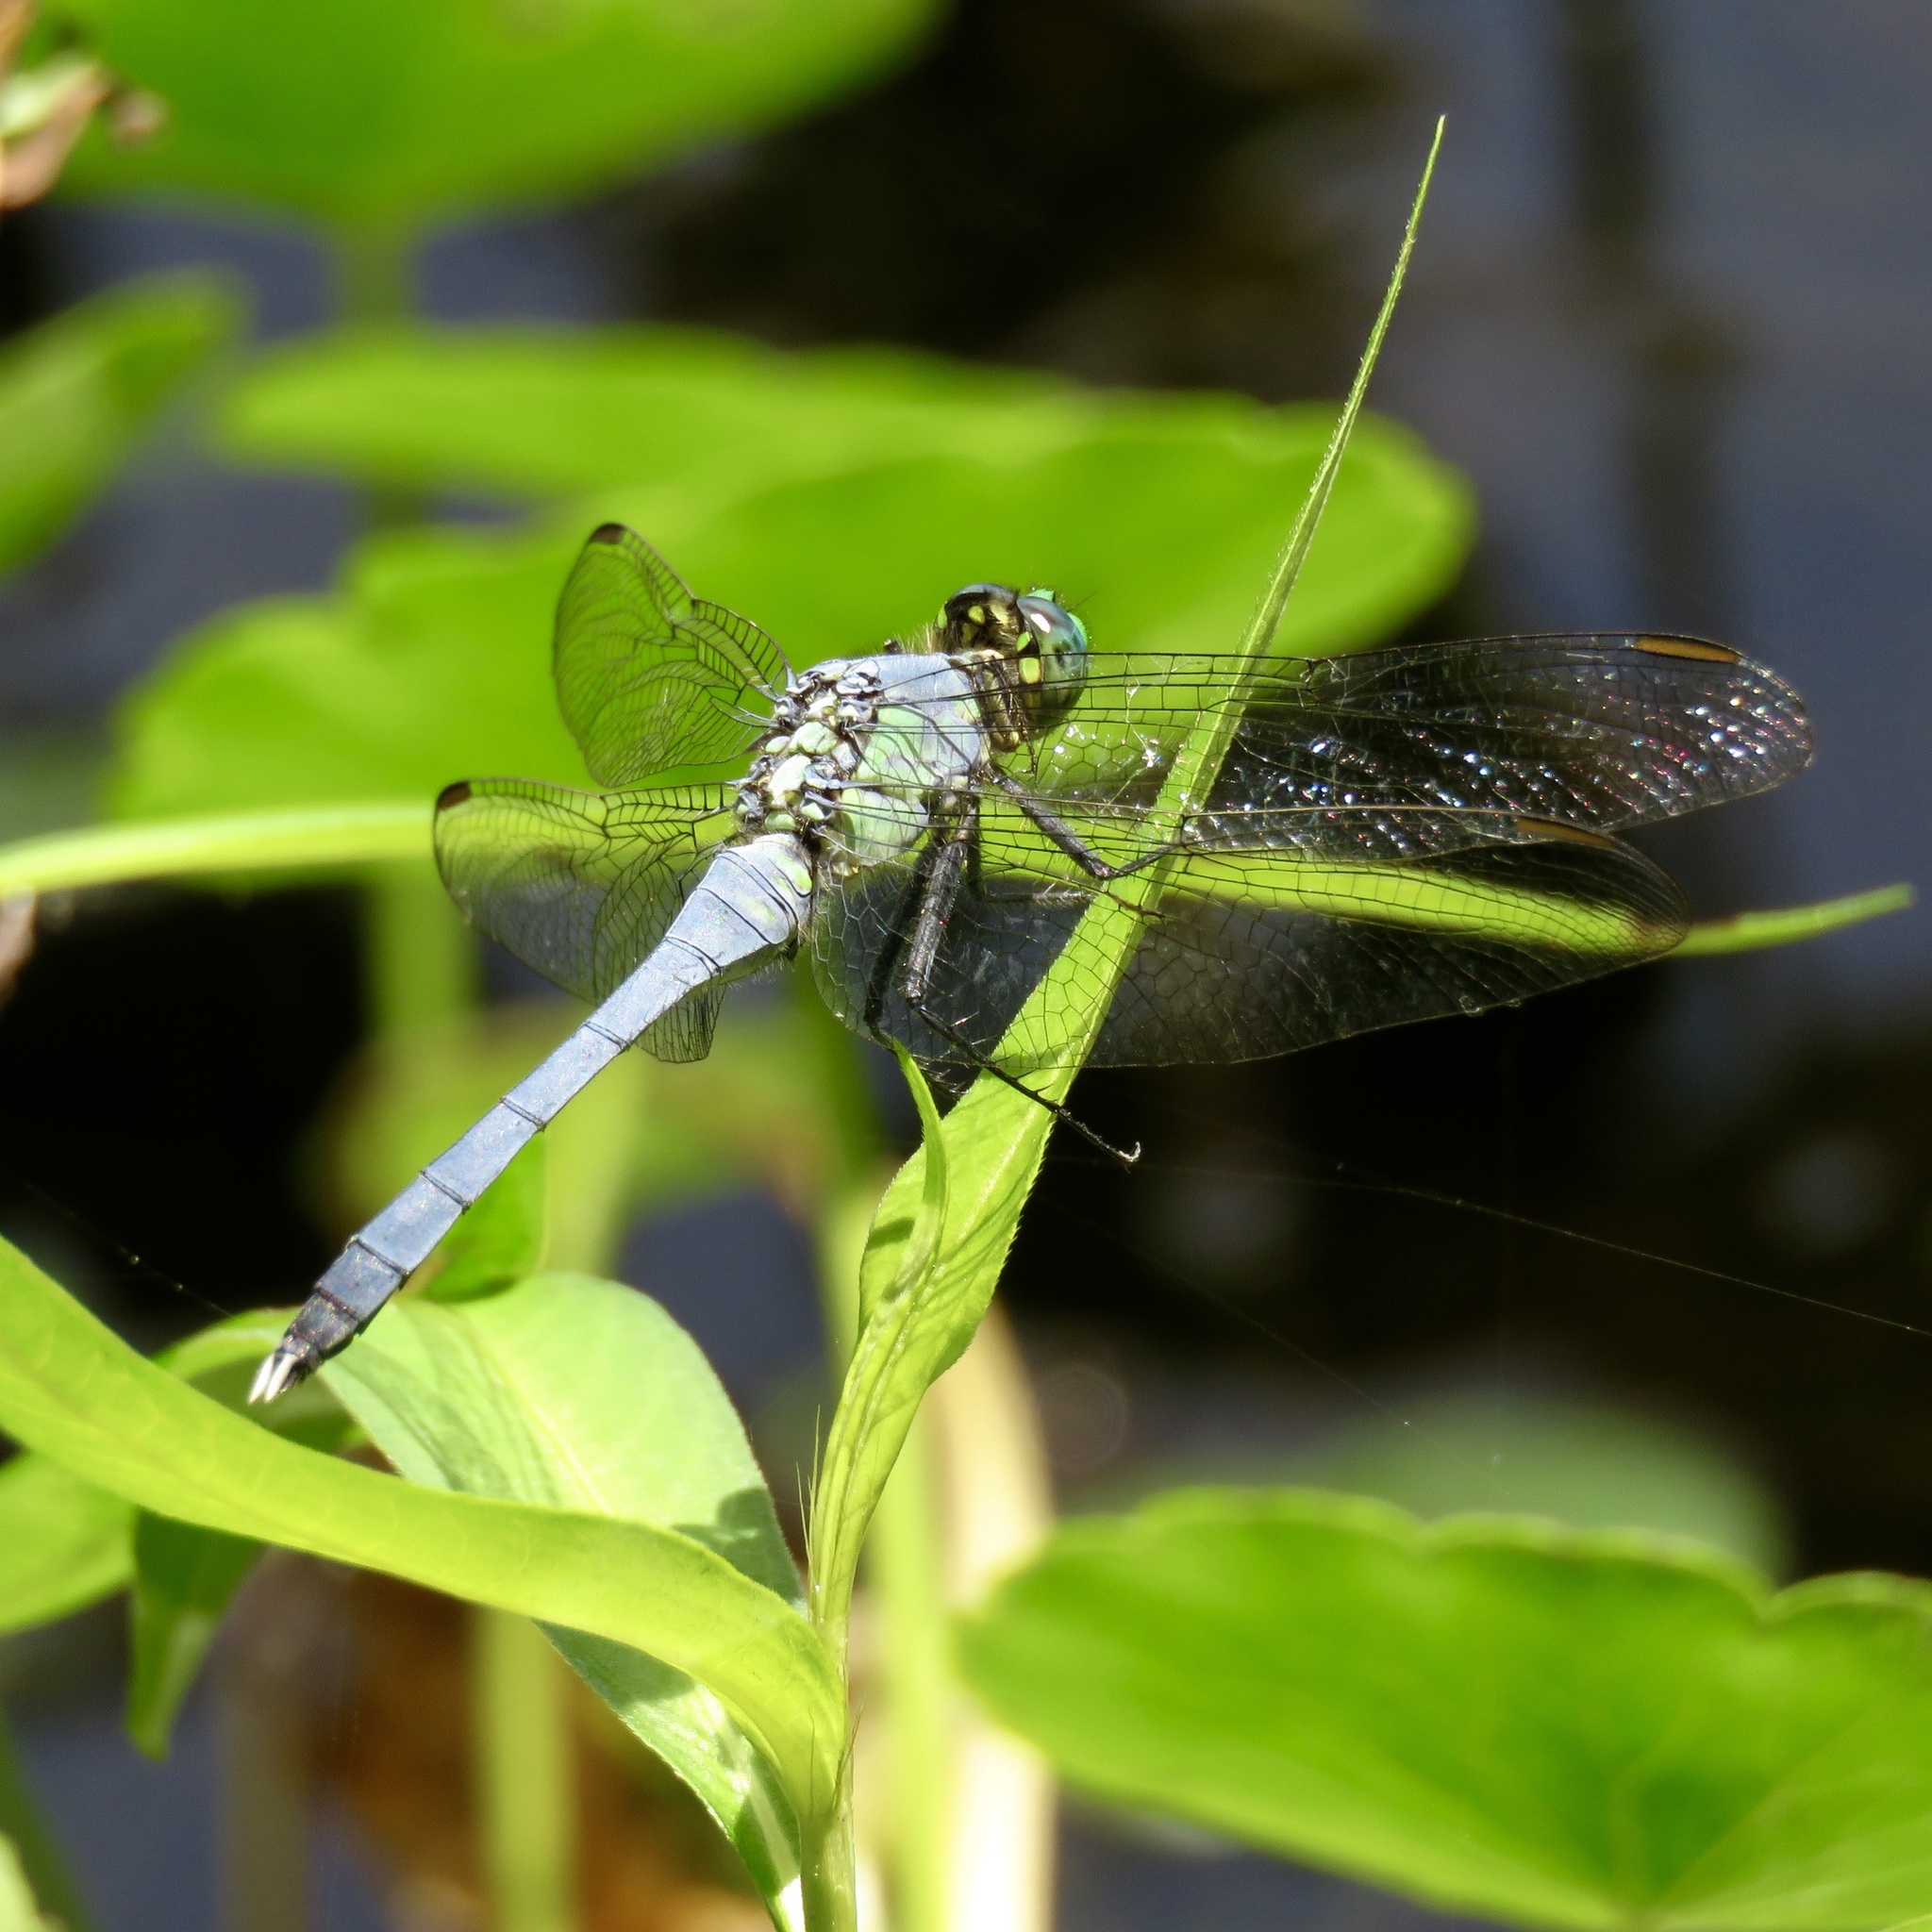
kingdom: Animalia
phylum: Arthropoda
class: Insecta
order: Odonata
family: Libellulidae
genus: Erythemis
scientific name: Erythemis simplicicollis
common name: Eastern pondhawk
